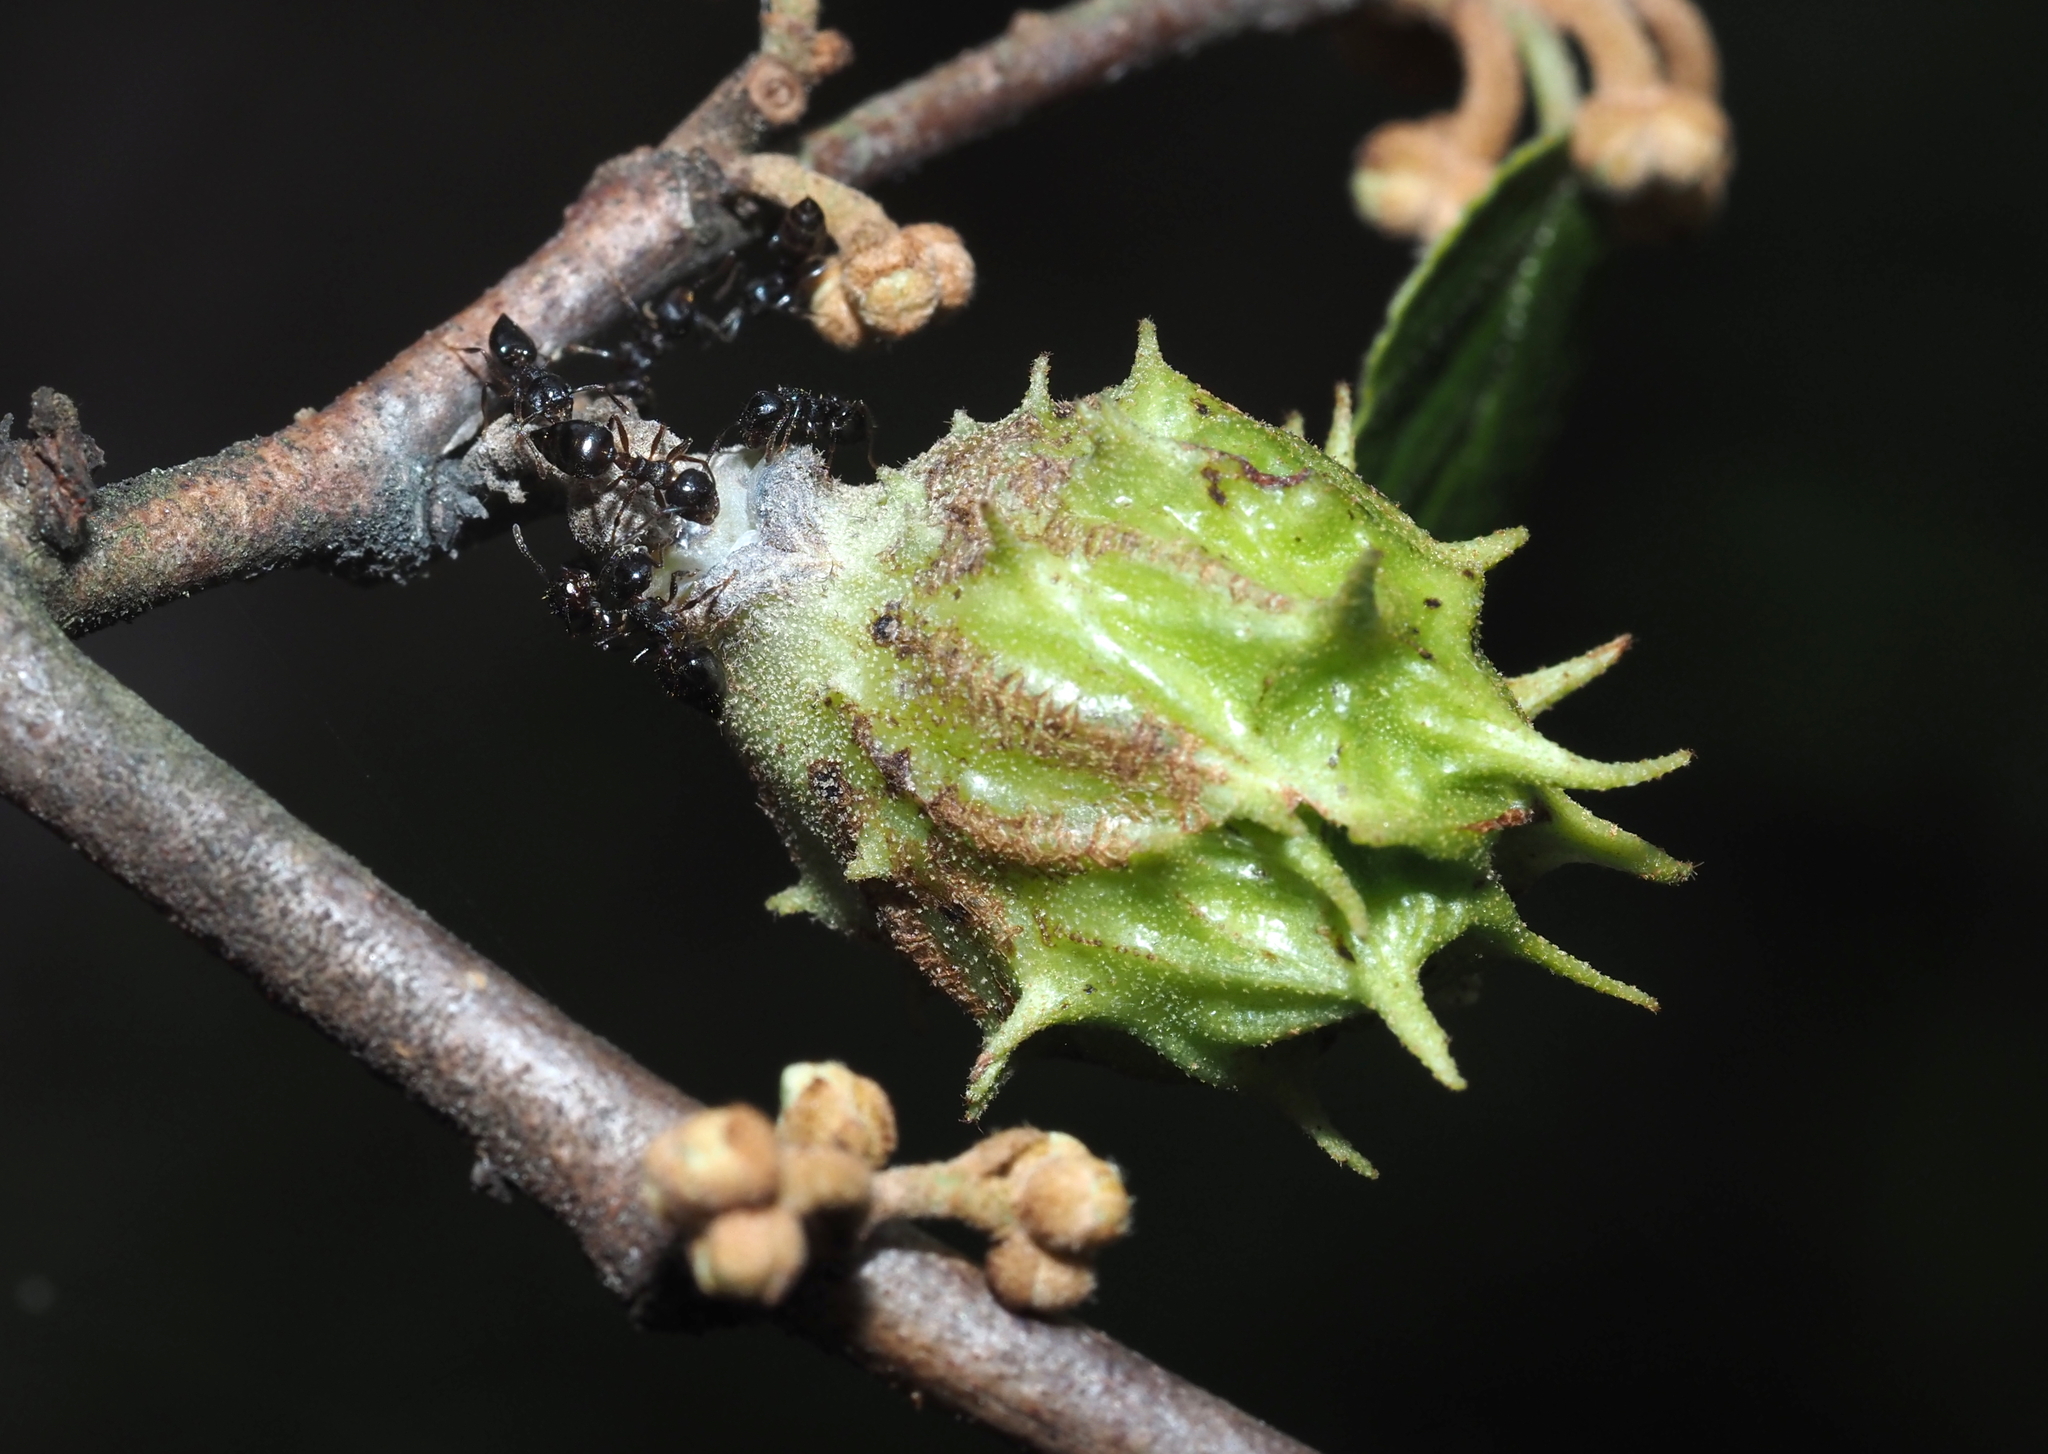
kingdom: Animalia
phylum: Arthropoda
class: Insecta
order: Hemiptera
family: Aphididae
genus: Hamamelistes
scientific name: Hamamelistes spinosus
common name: Witch hazel gall aphid
